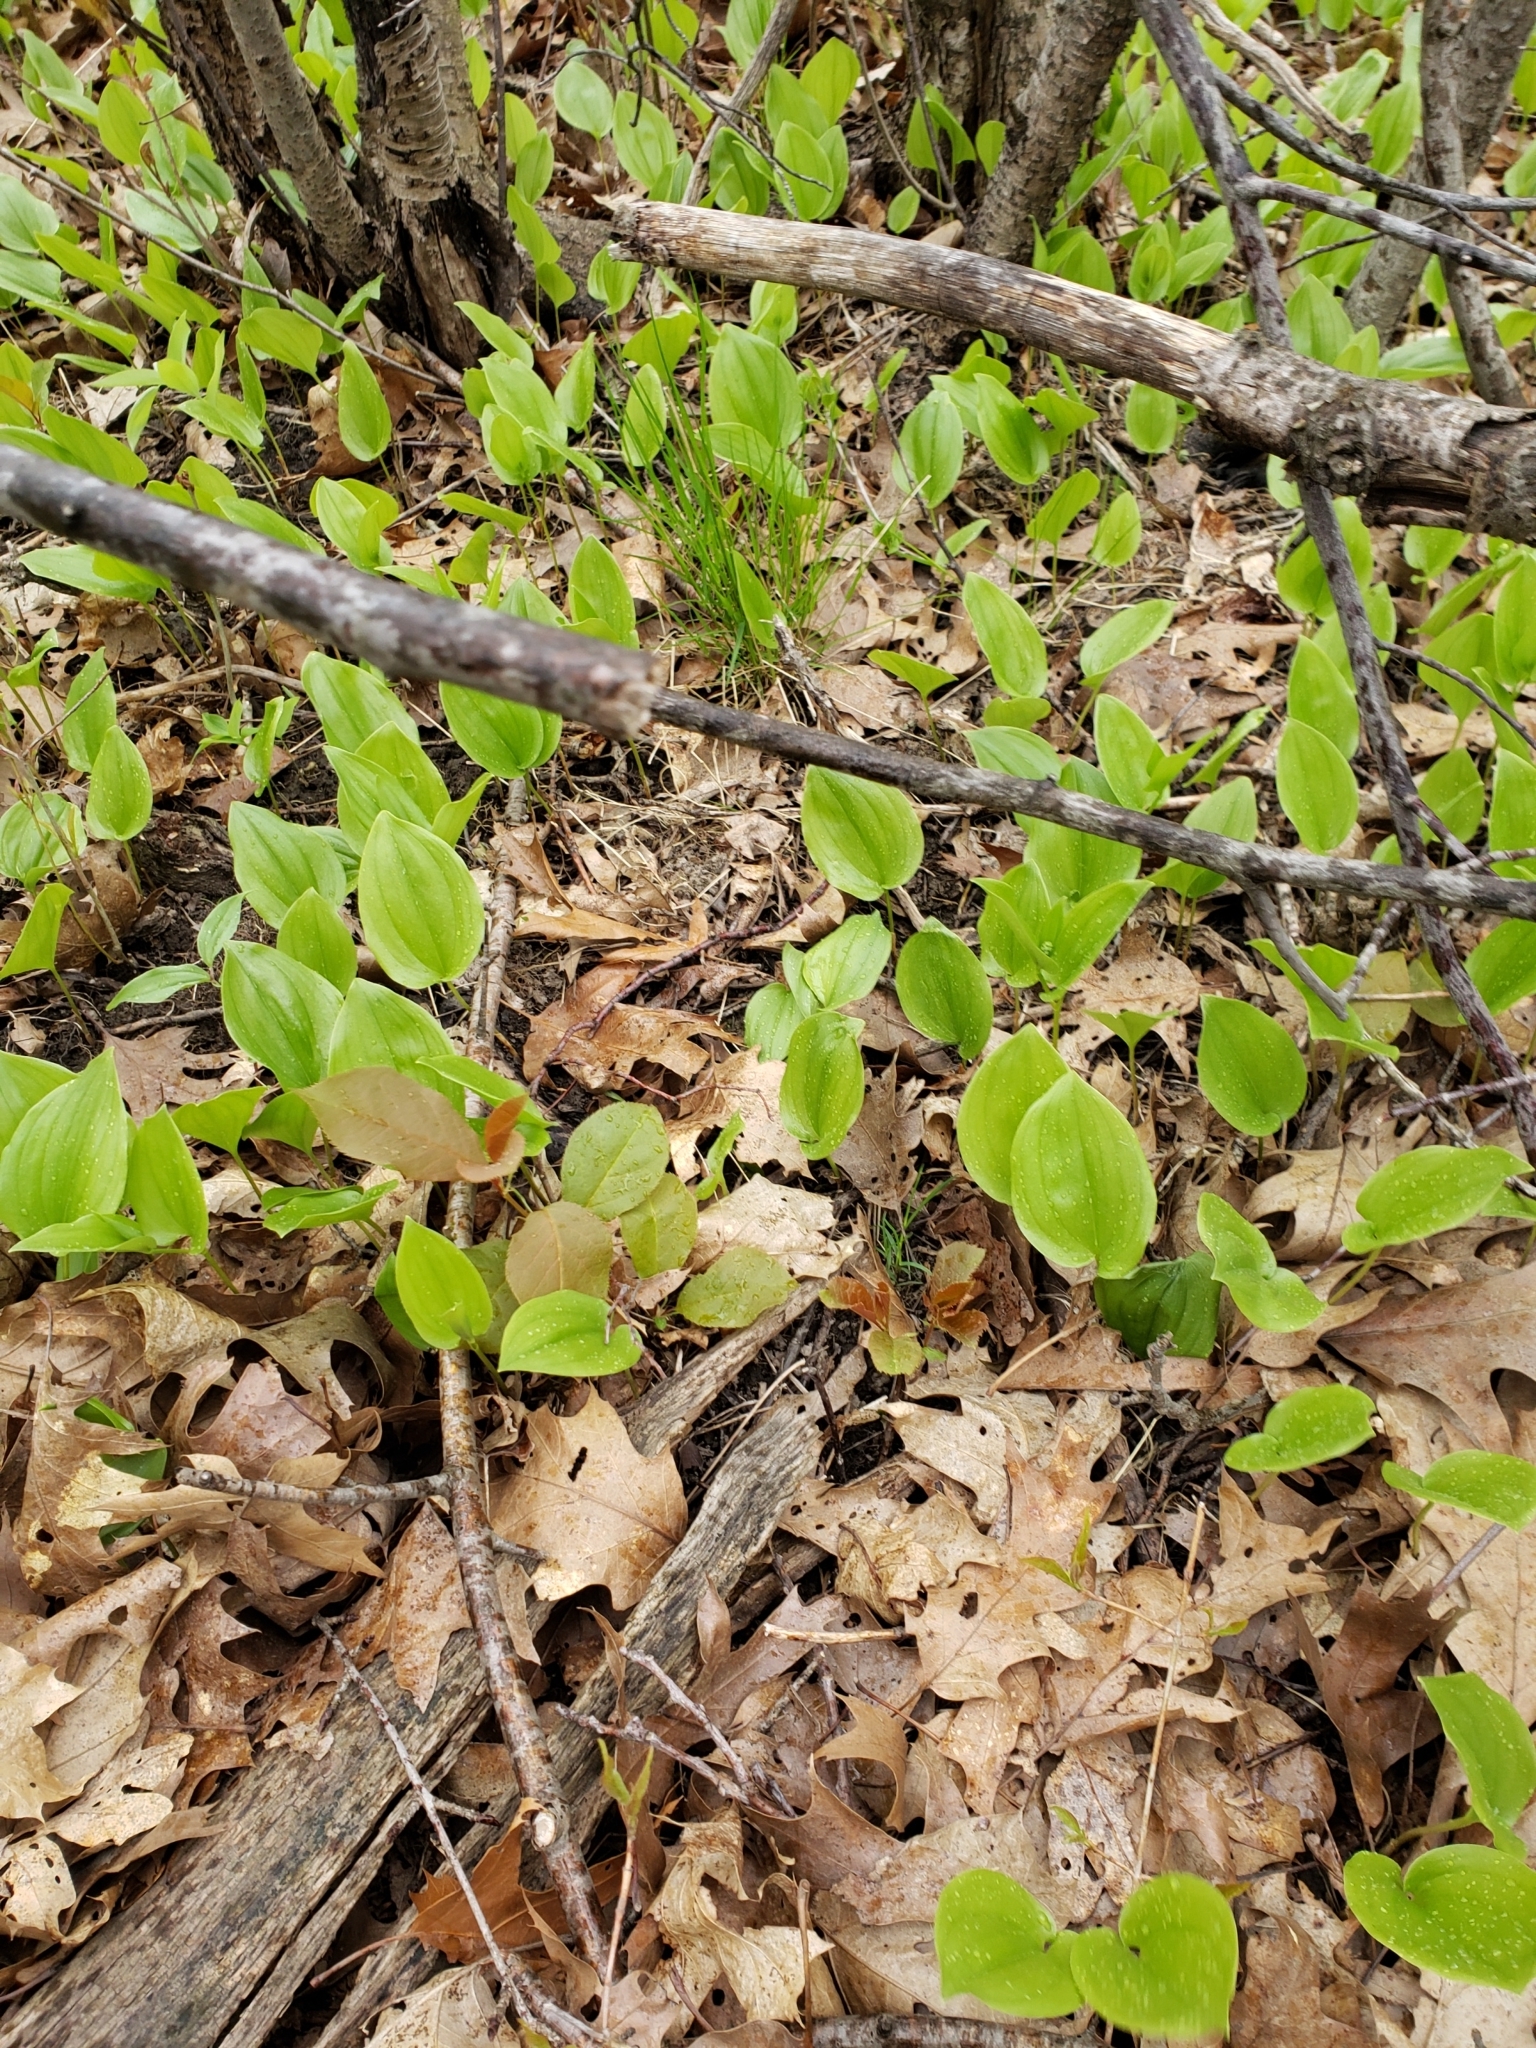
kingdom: Plantae
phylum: Tracheophyta
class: Liliopsida
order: Asparagales
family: Asparagaceae
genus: Maianthemum
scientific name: Maianthemum canadense
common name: False lily-of-the-valley
